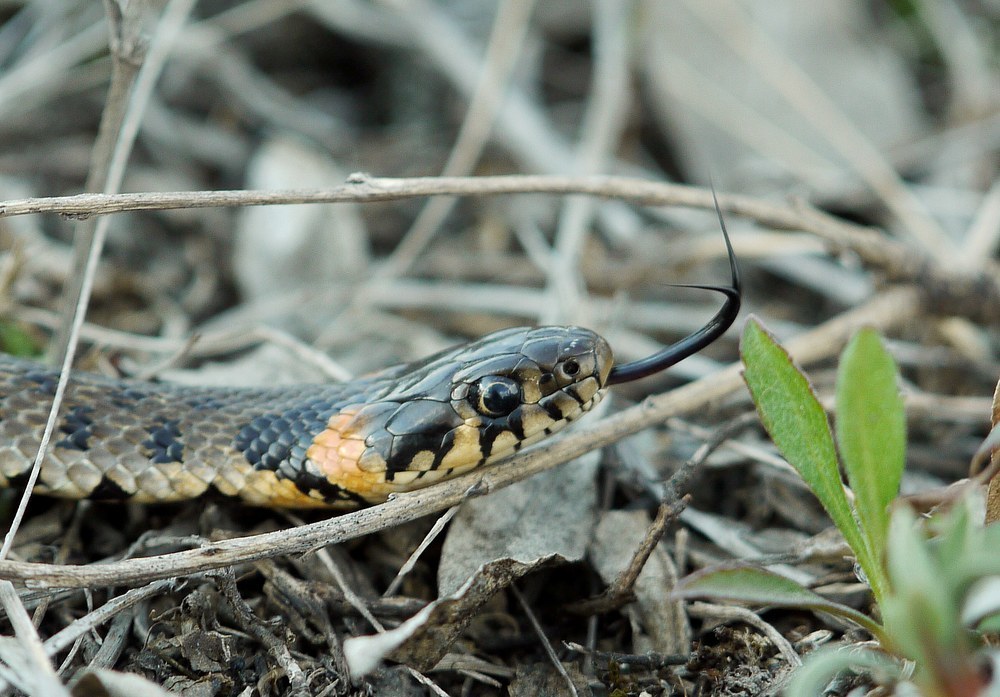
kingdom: Animalia
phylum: Chordata
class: Squamata
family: Colubridae
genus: Natrix
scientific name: Natrix natrix
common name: Grass snake
